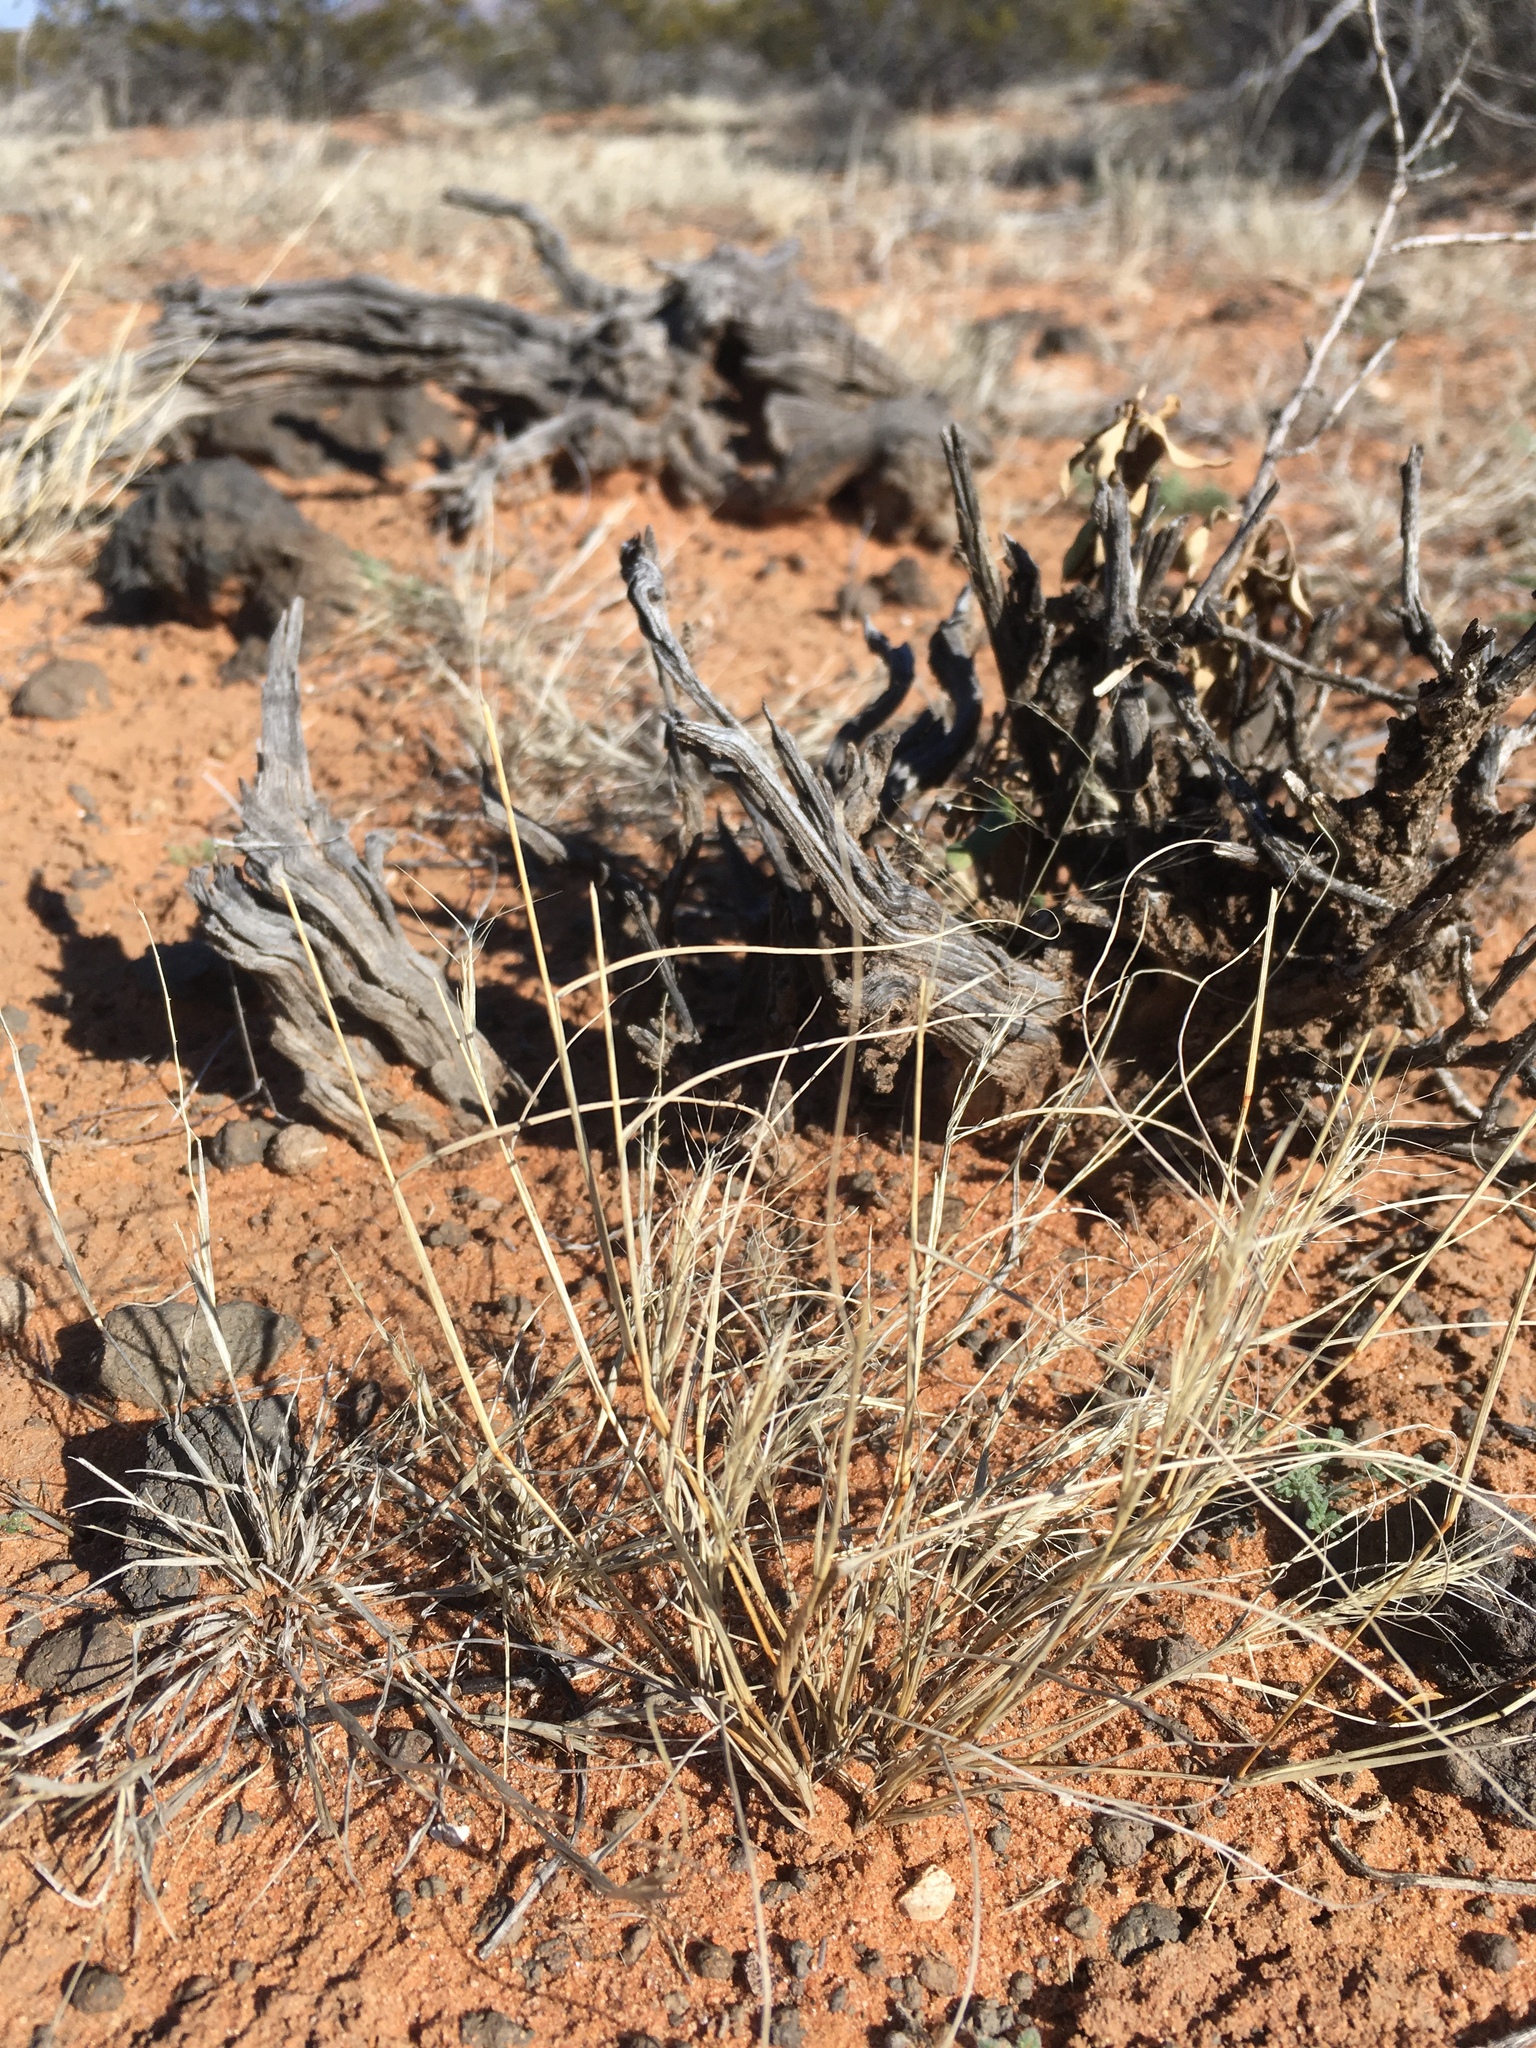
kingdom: Plantae
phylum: Tracheophyta
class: Liliopsida
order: Poales
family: Poaceae
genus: Aristida
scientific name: Aristida adscensionis
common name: Sixweeks threeawn
